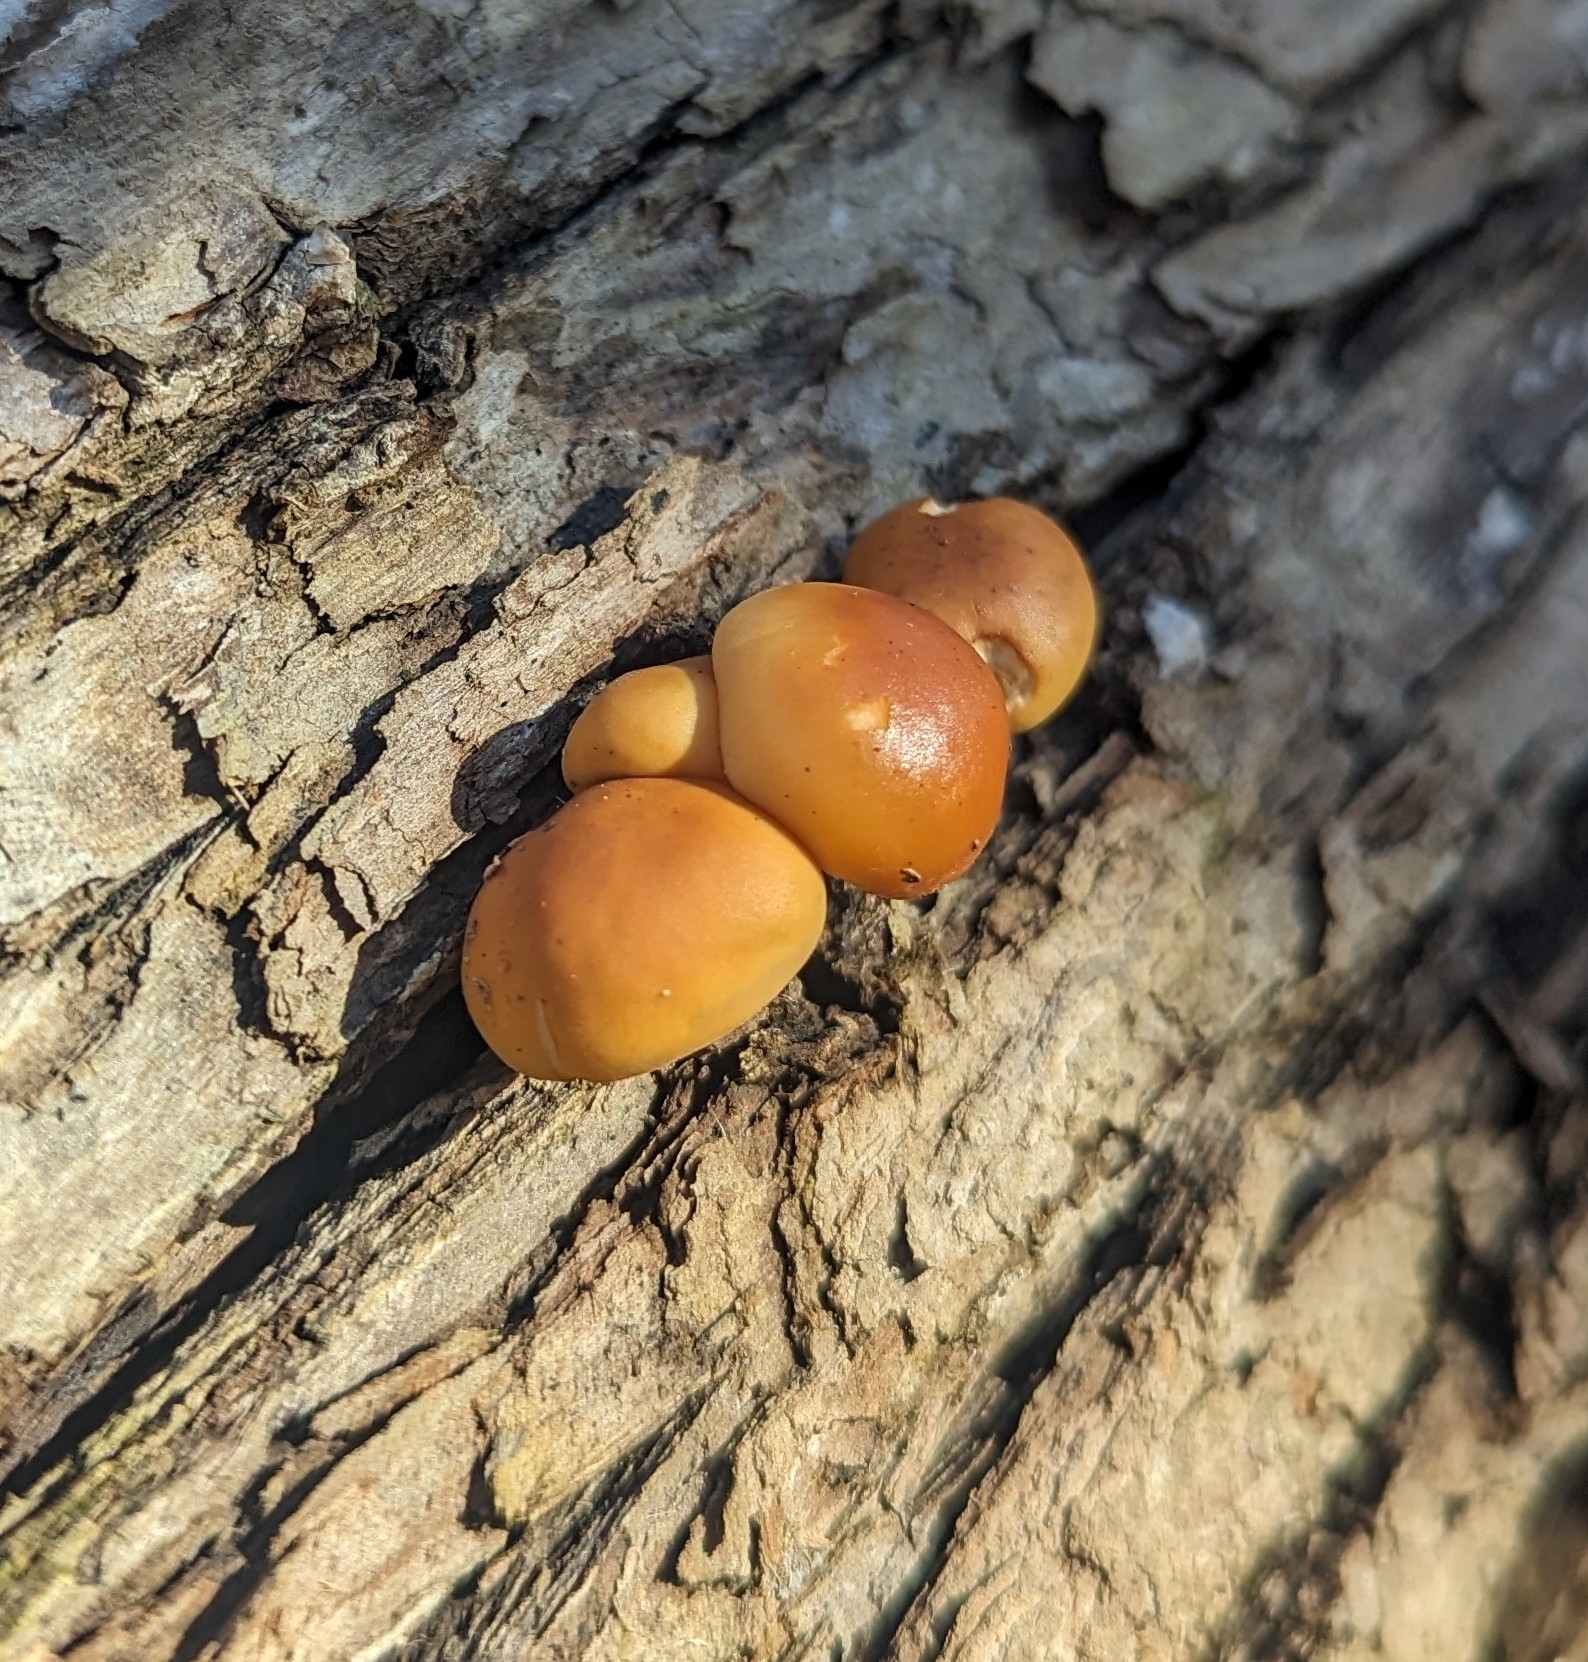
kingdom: Fungi
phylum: Basidiomycota
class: Agaricomycetes
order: Agaricales
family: Physalacriaceae
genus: Flammulina
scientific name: Flammulina velutipes
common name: Velvet shank
